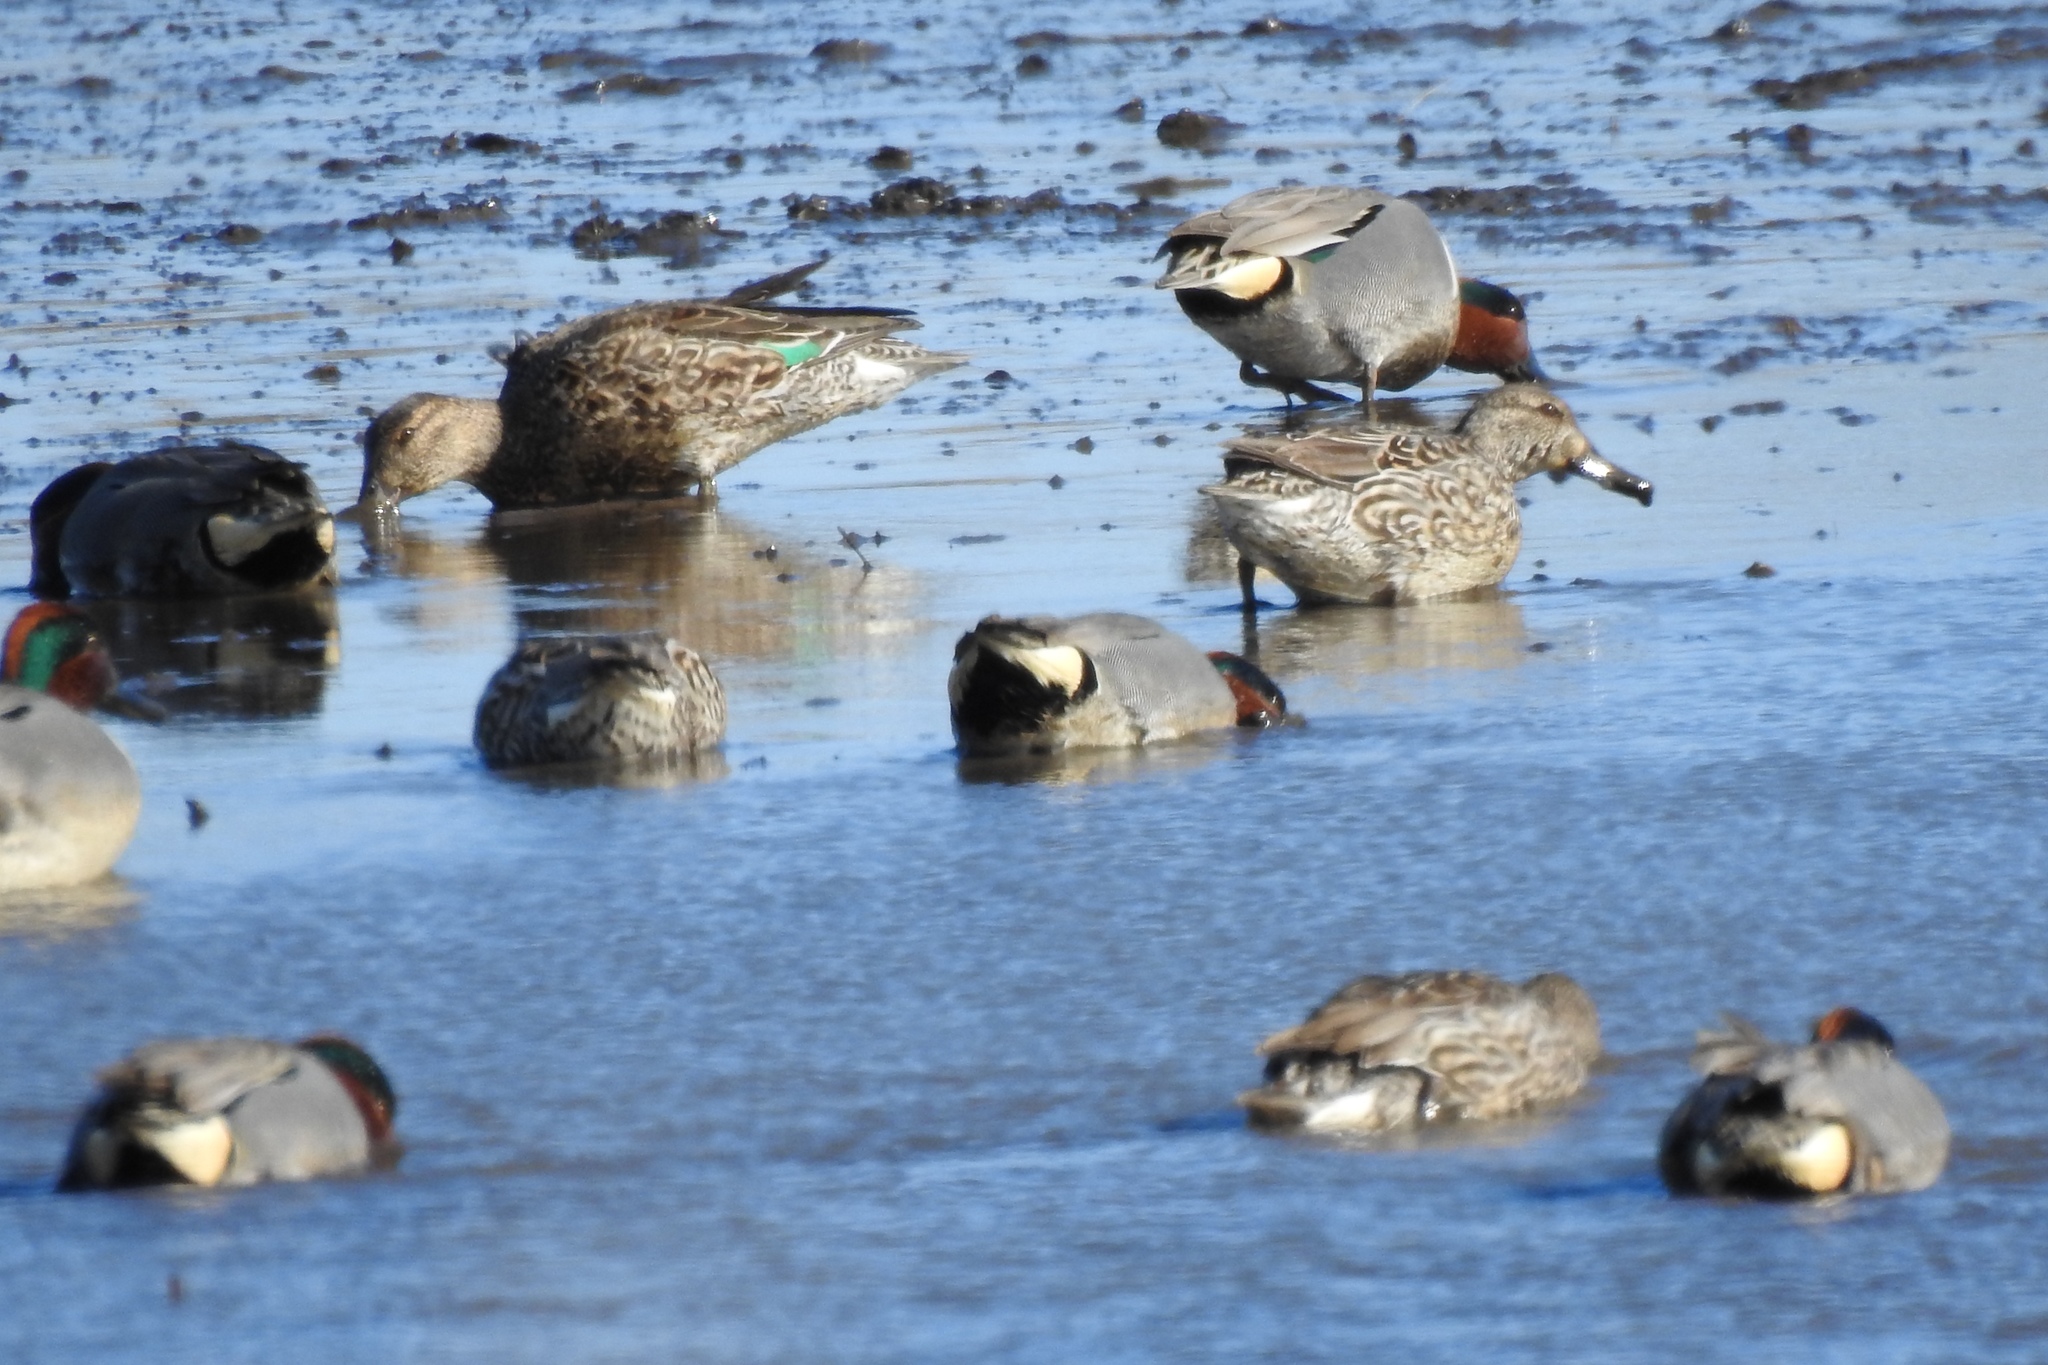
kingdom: Animalia
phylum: Chordata
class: Aves
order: Anseriformes
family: Anatidae
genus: Anas
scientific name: Anas crecca
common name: Eurasian teal
